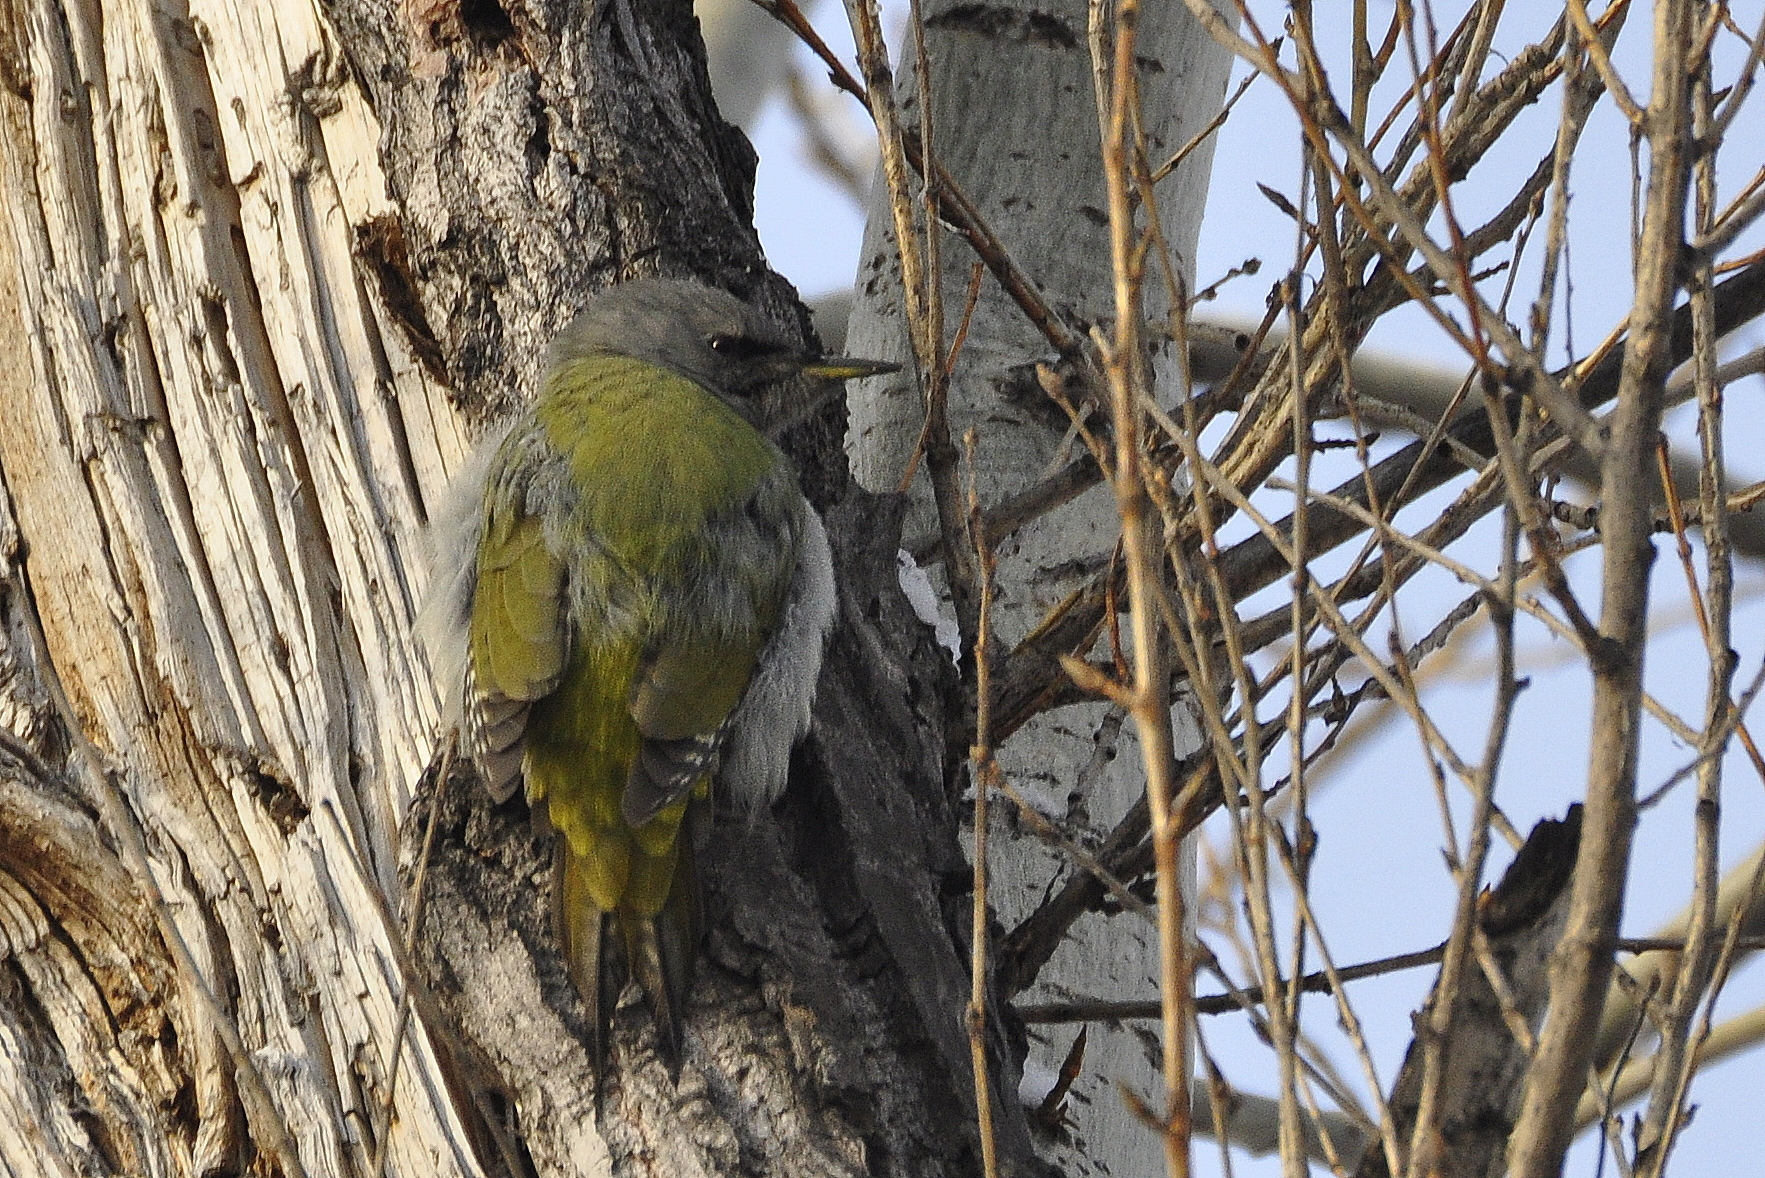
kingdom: Animalia
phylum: Chordata
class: Aves
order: Piciformes
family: Picidae
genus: Picus
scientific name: Picus canus
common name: Grey-headed woodpecker
